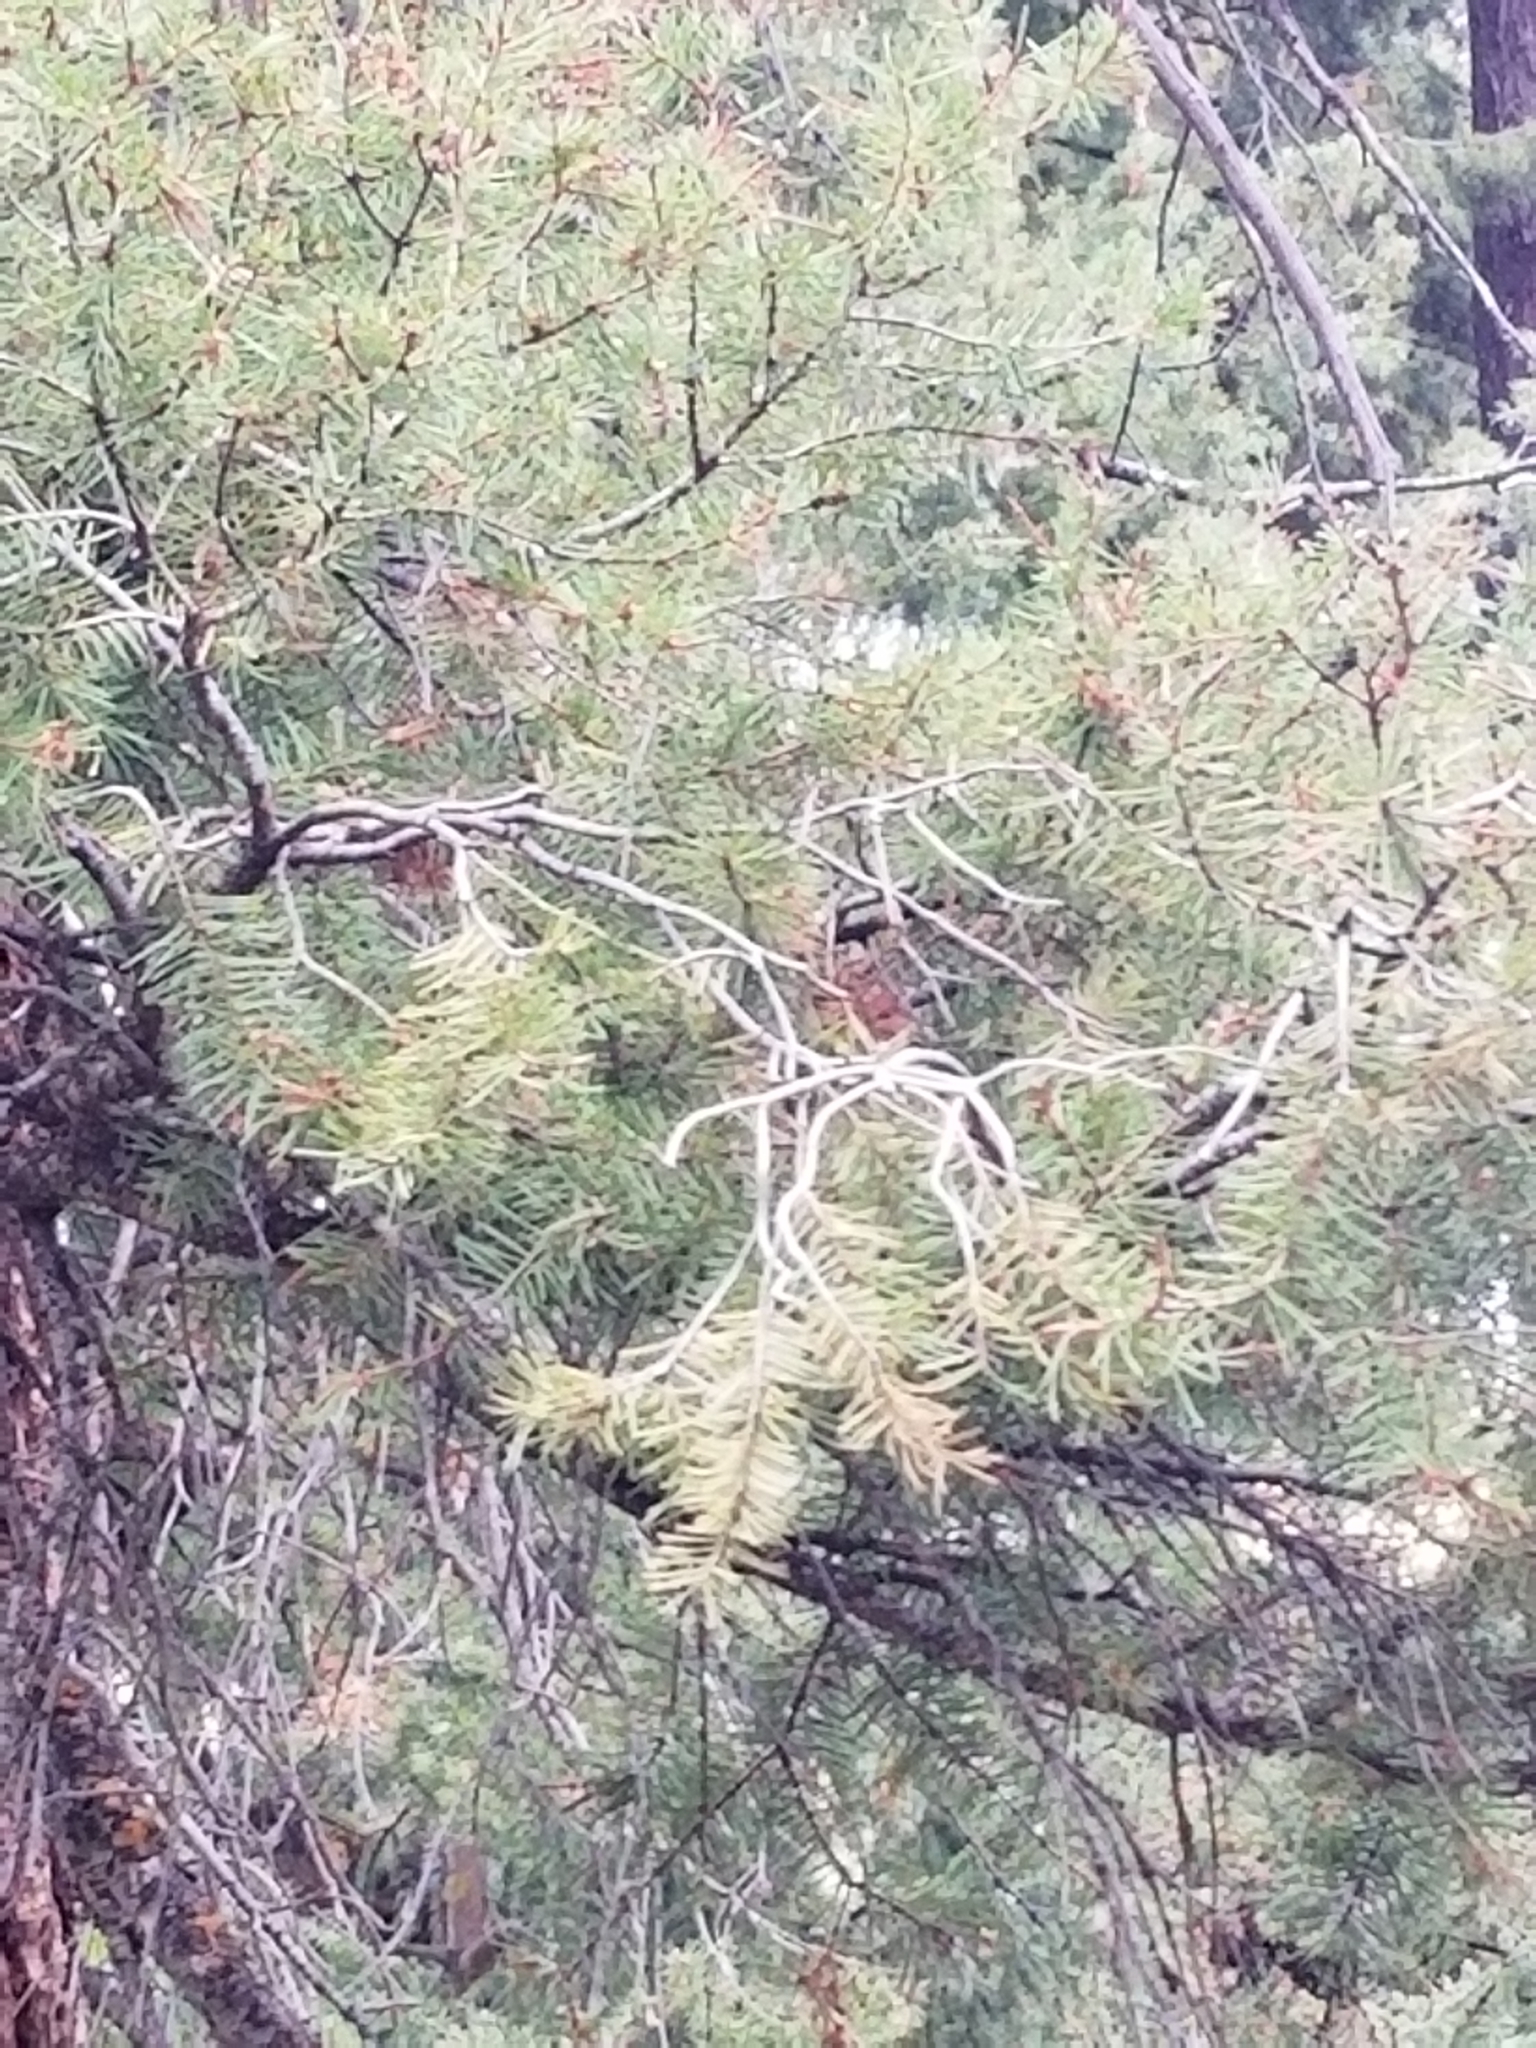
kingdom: Plantae
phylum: Tracheophyta
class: Pinopsida
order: Pinales
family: Pinaceae
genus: Pseudotsuga
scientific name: Pseudotsuga menziesii
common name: Douglas fir
